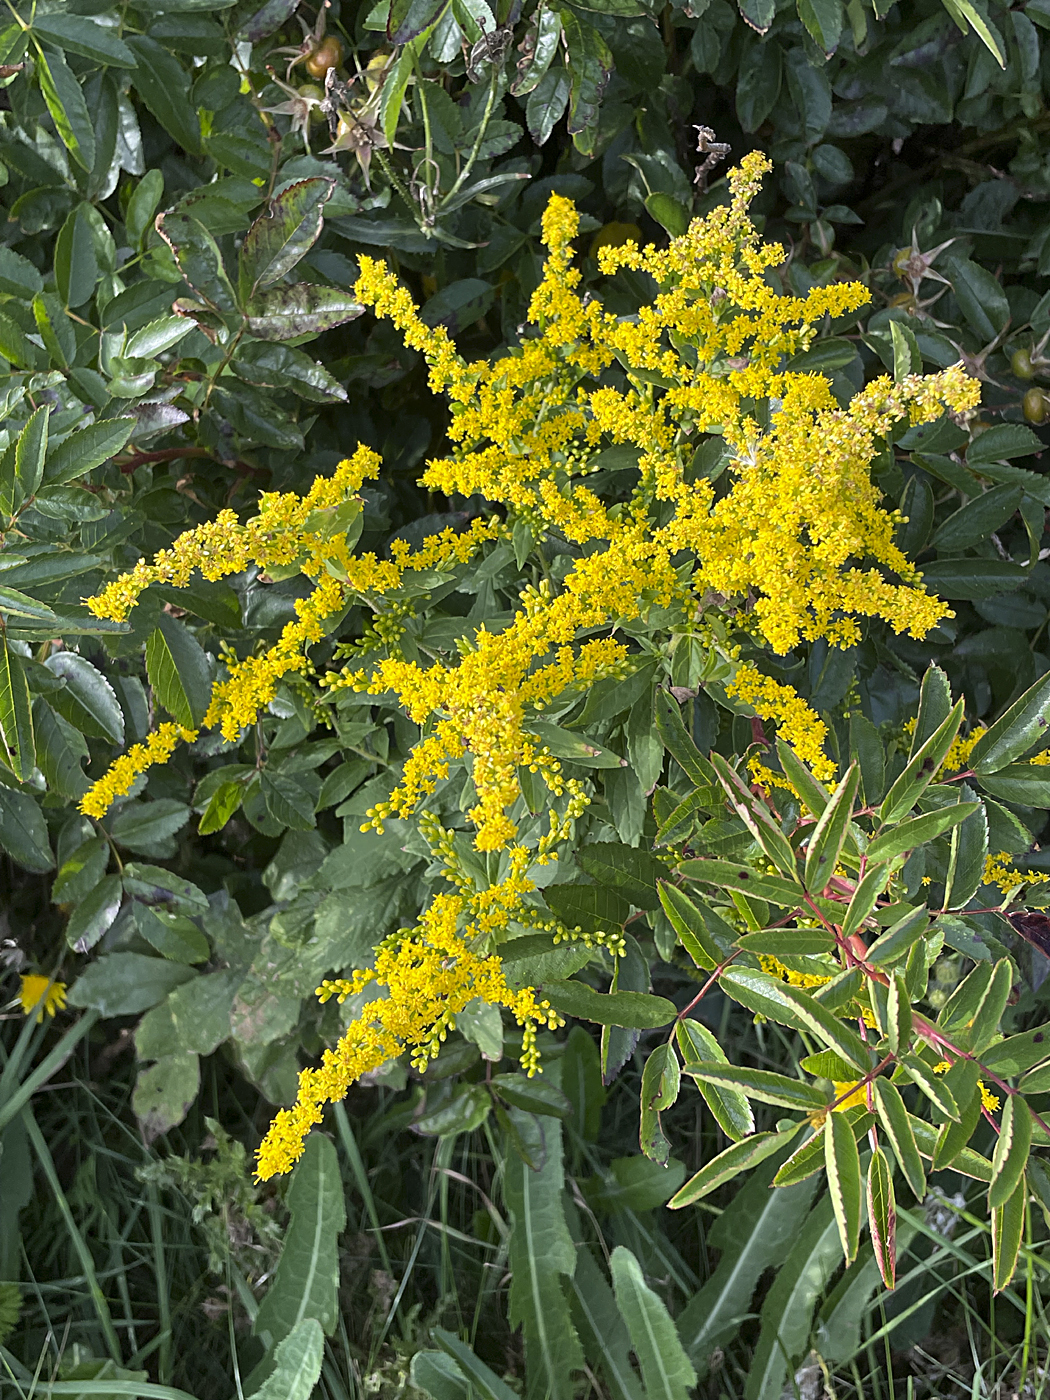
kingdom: Plantae
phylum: Tracheophyta
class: Magnoliopsida
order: Asterales
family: Asteraceae
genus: Solidago
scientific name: Solidago rugosa
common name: Rough-stemmed goldenrod
